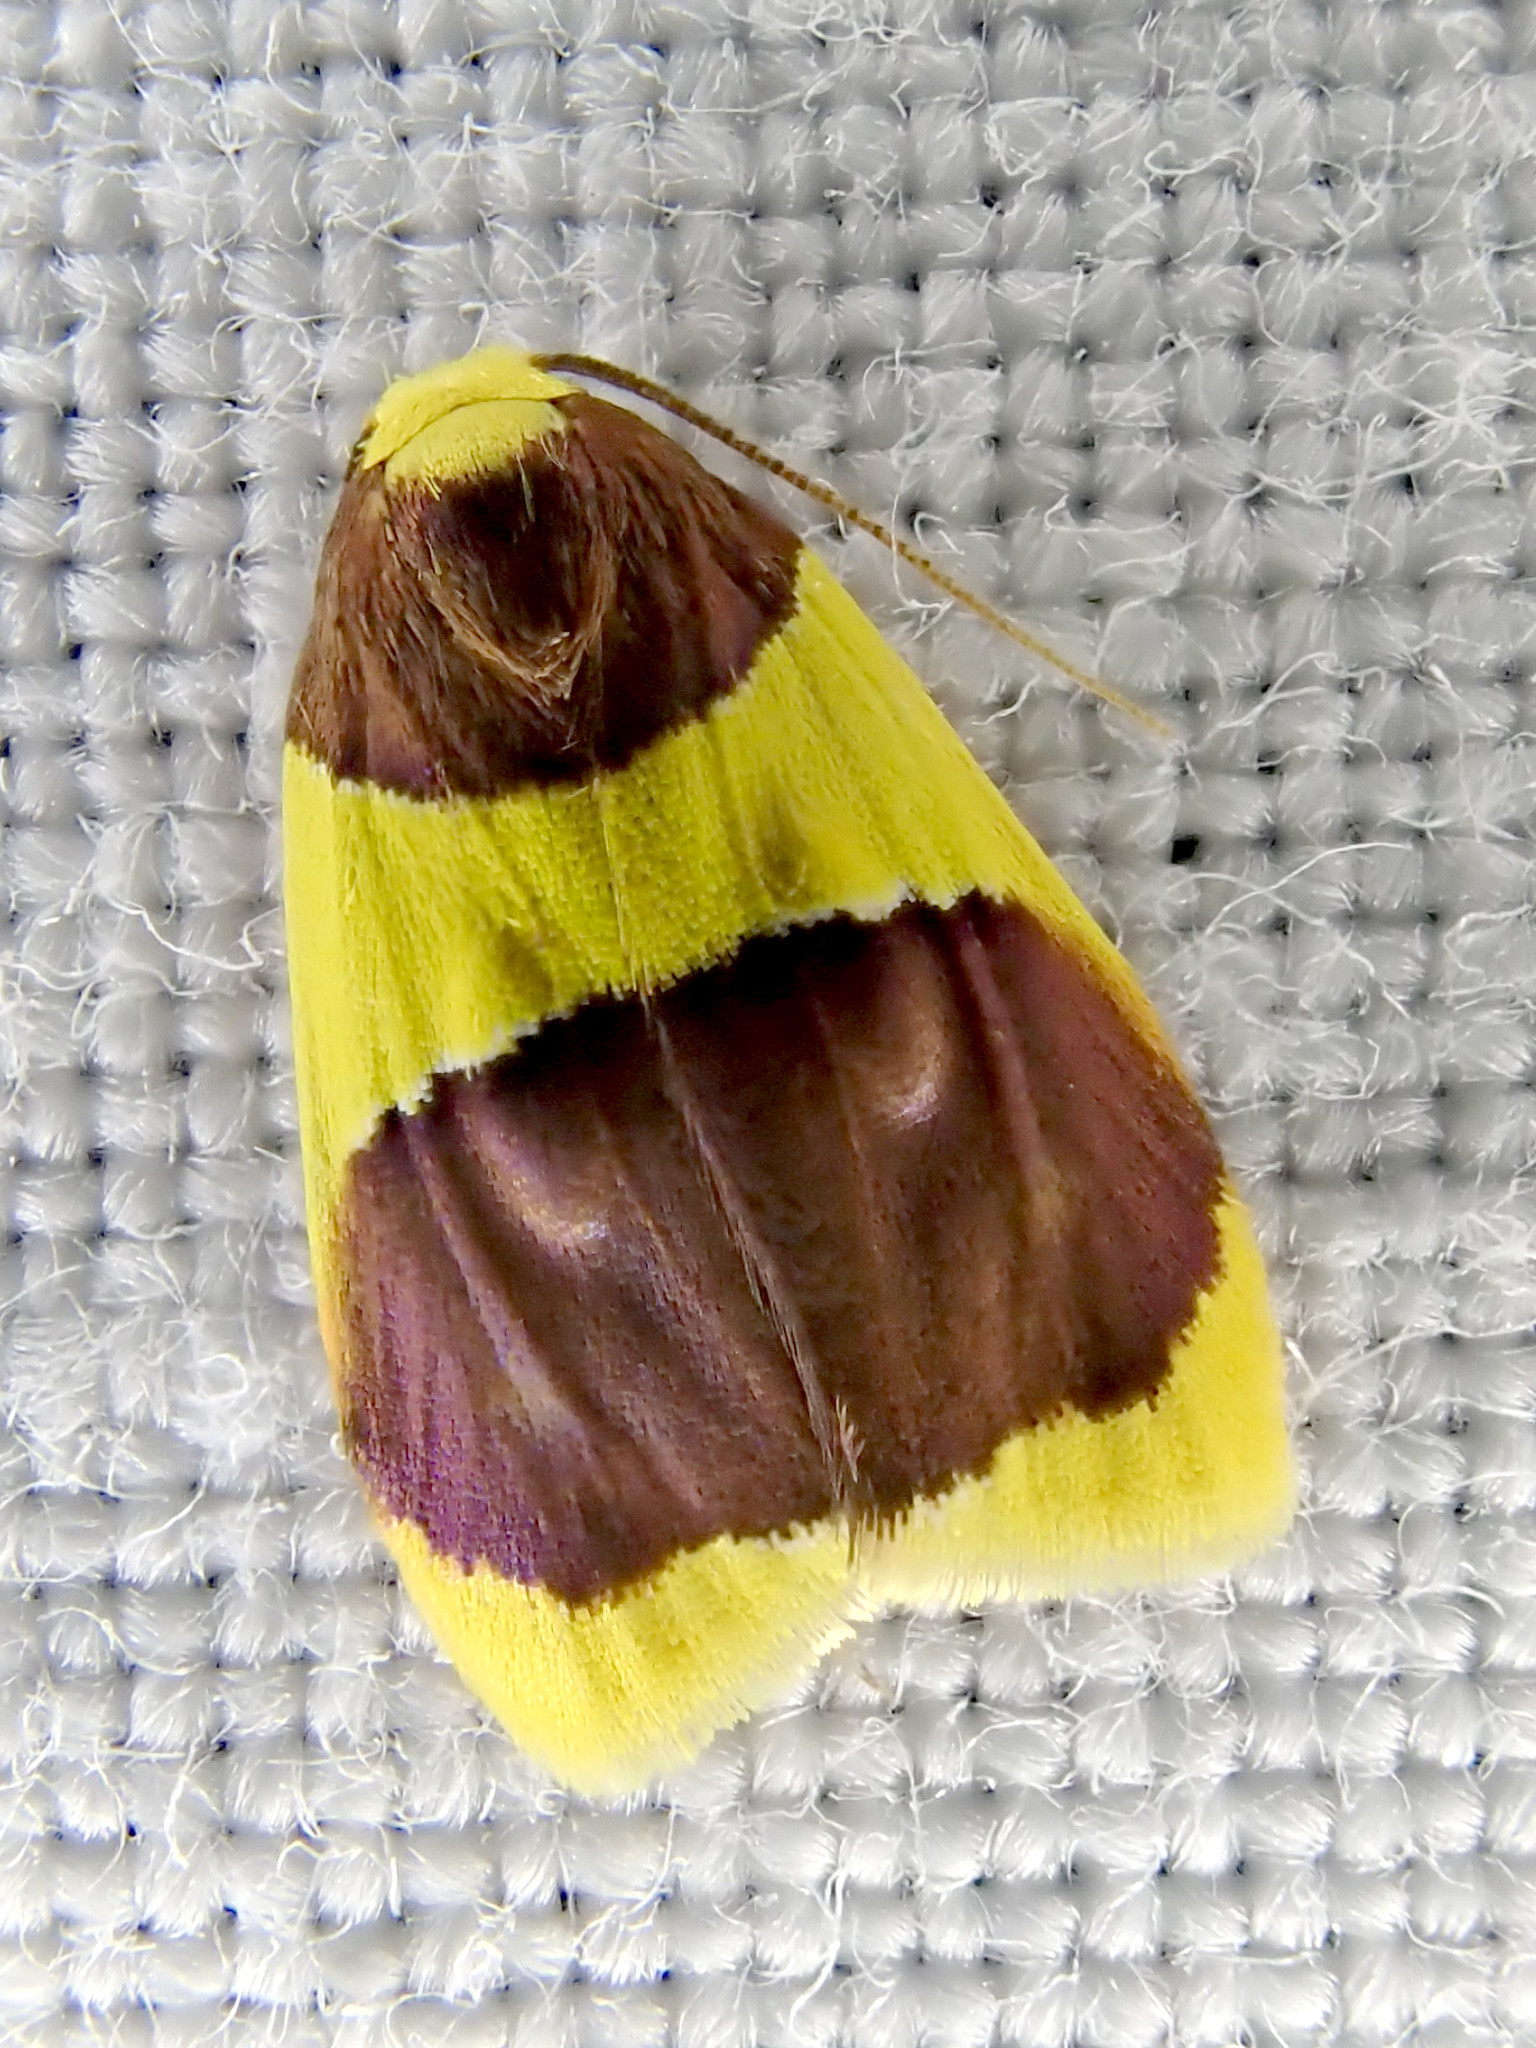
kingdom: Animalia
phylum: Arthropoda
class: Insecta
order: Lepidoptera
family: Erebidae
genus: Heterallactis
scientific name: Heterallactis stenochrysa
